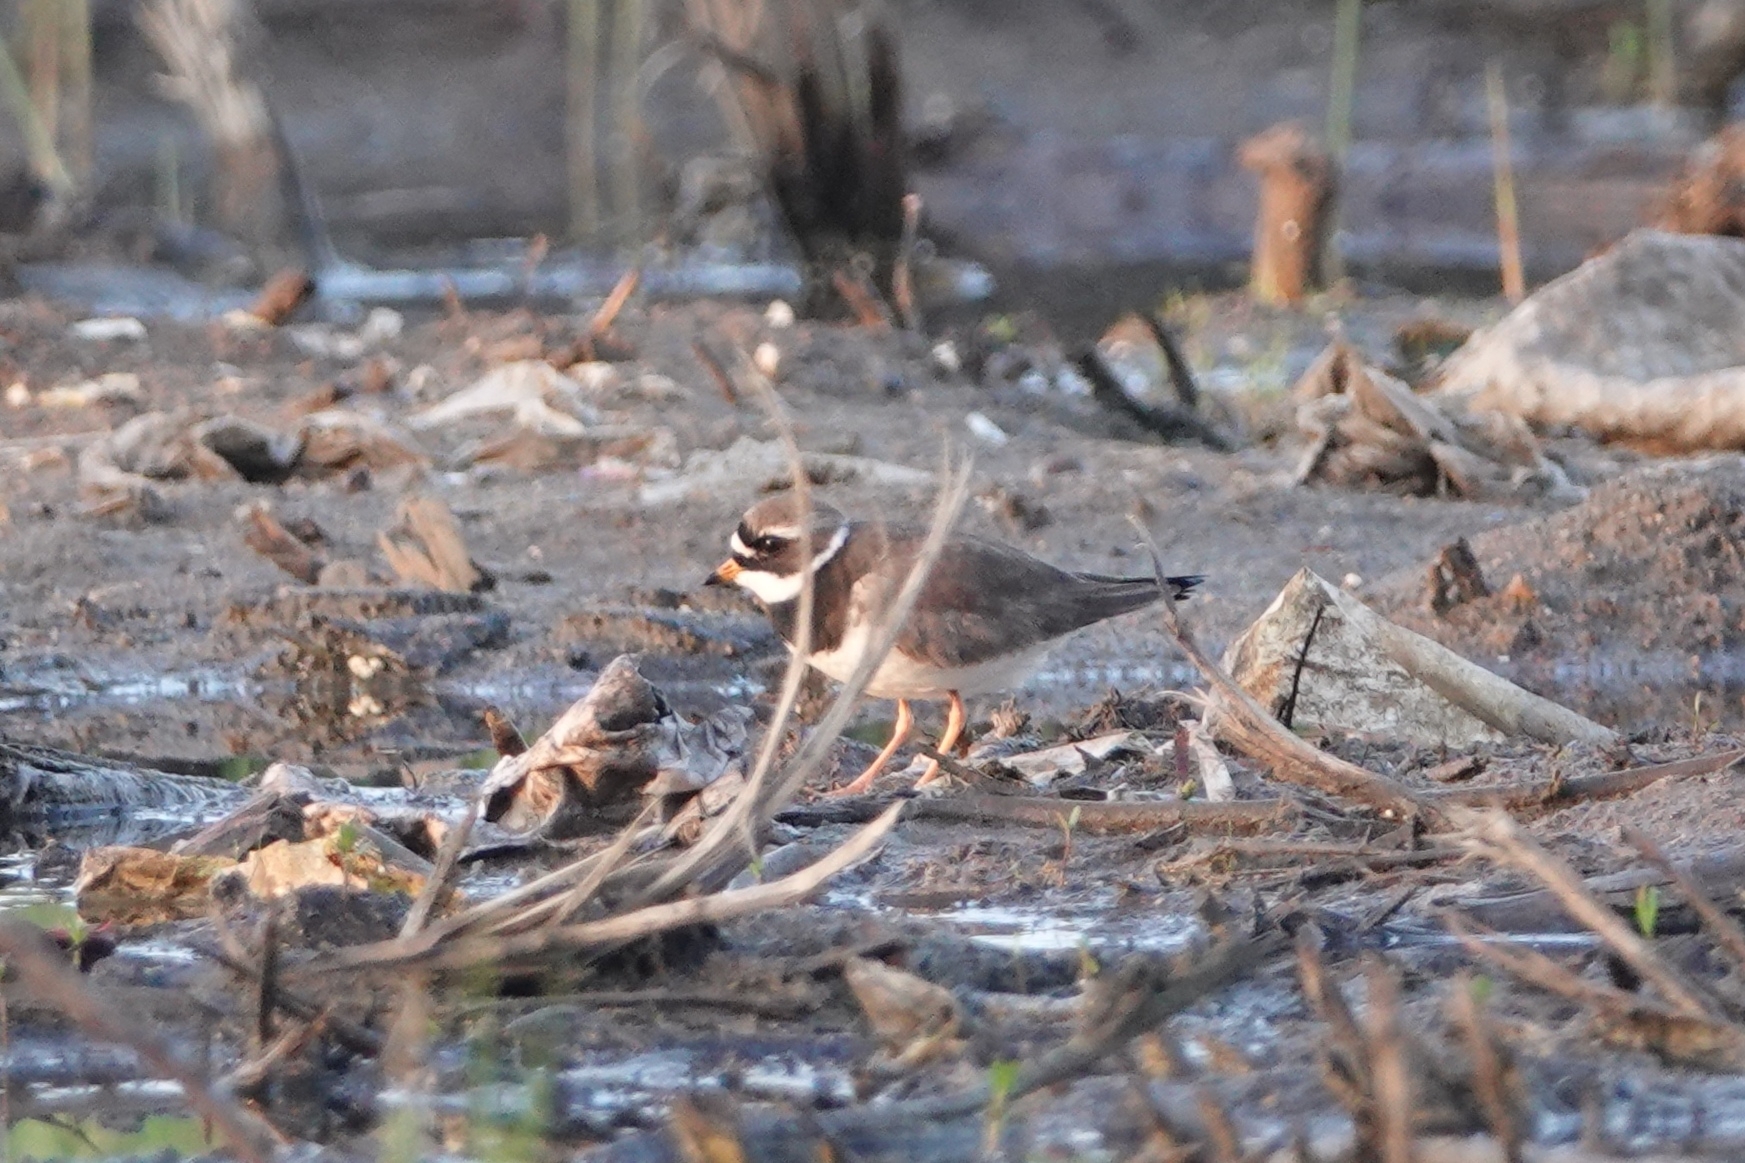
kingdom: Animalia
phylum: Chordata
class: Aves
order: Charadriiformes
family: Charadriidae
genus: Charadrius
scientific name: Charadrius hiaticula
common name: Common ringed plover
